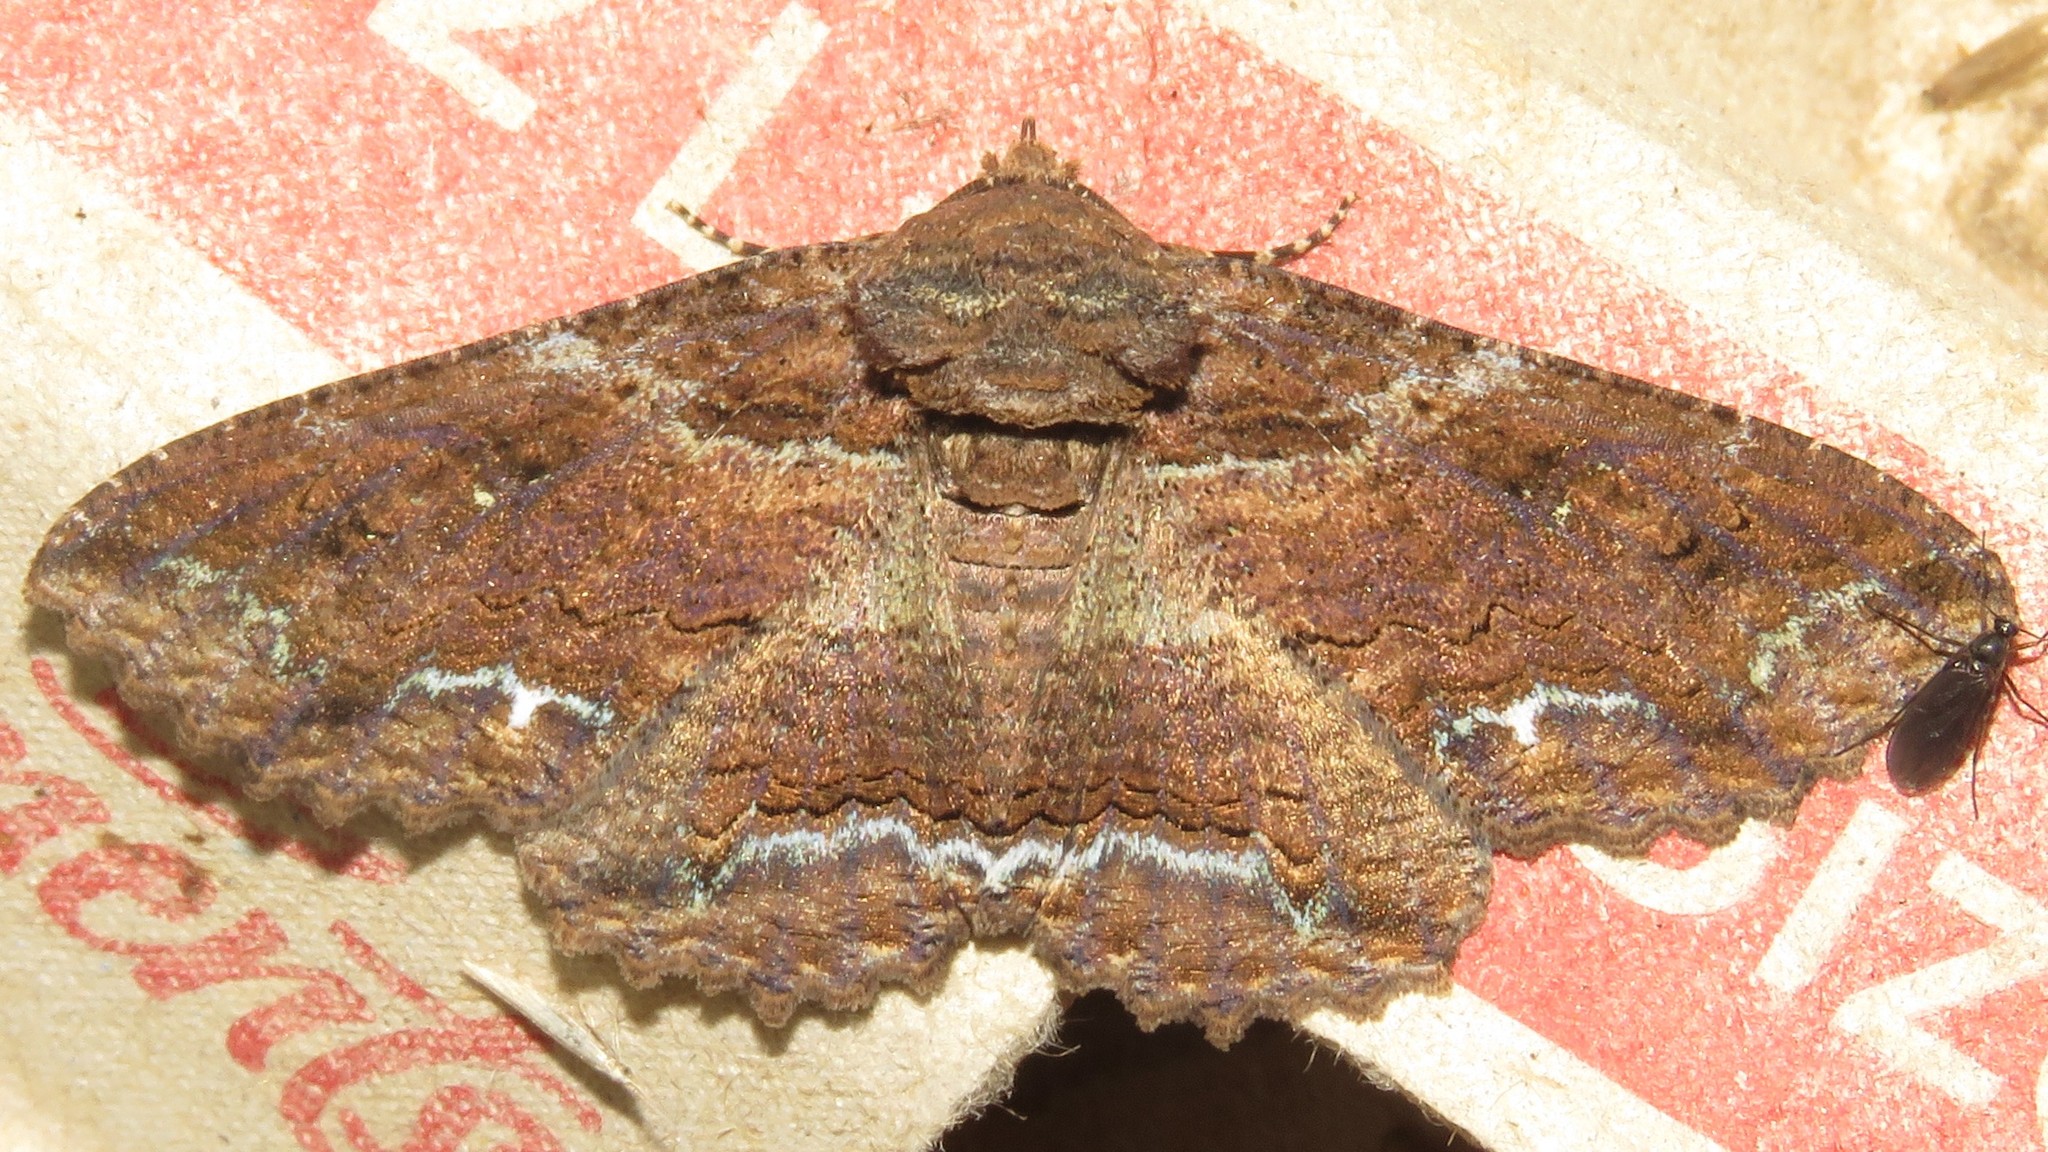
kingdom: Animalia
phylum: Arthropoda
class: Insecta
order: Lepidoptera
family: Erebidae
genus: Zale
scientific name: Zale lunata
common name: Lunate zale moth
